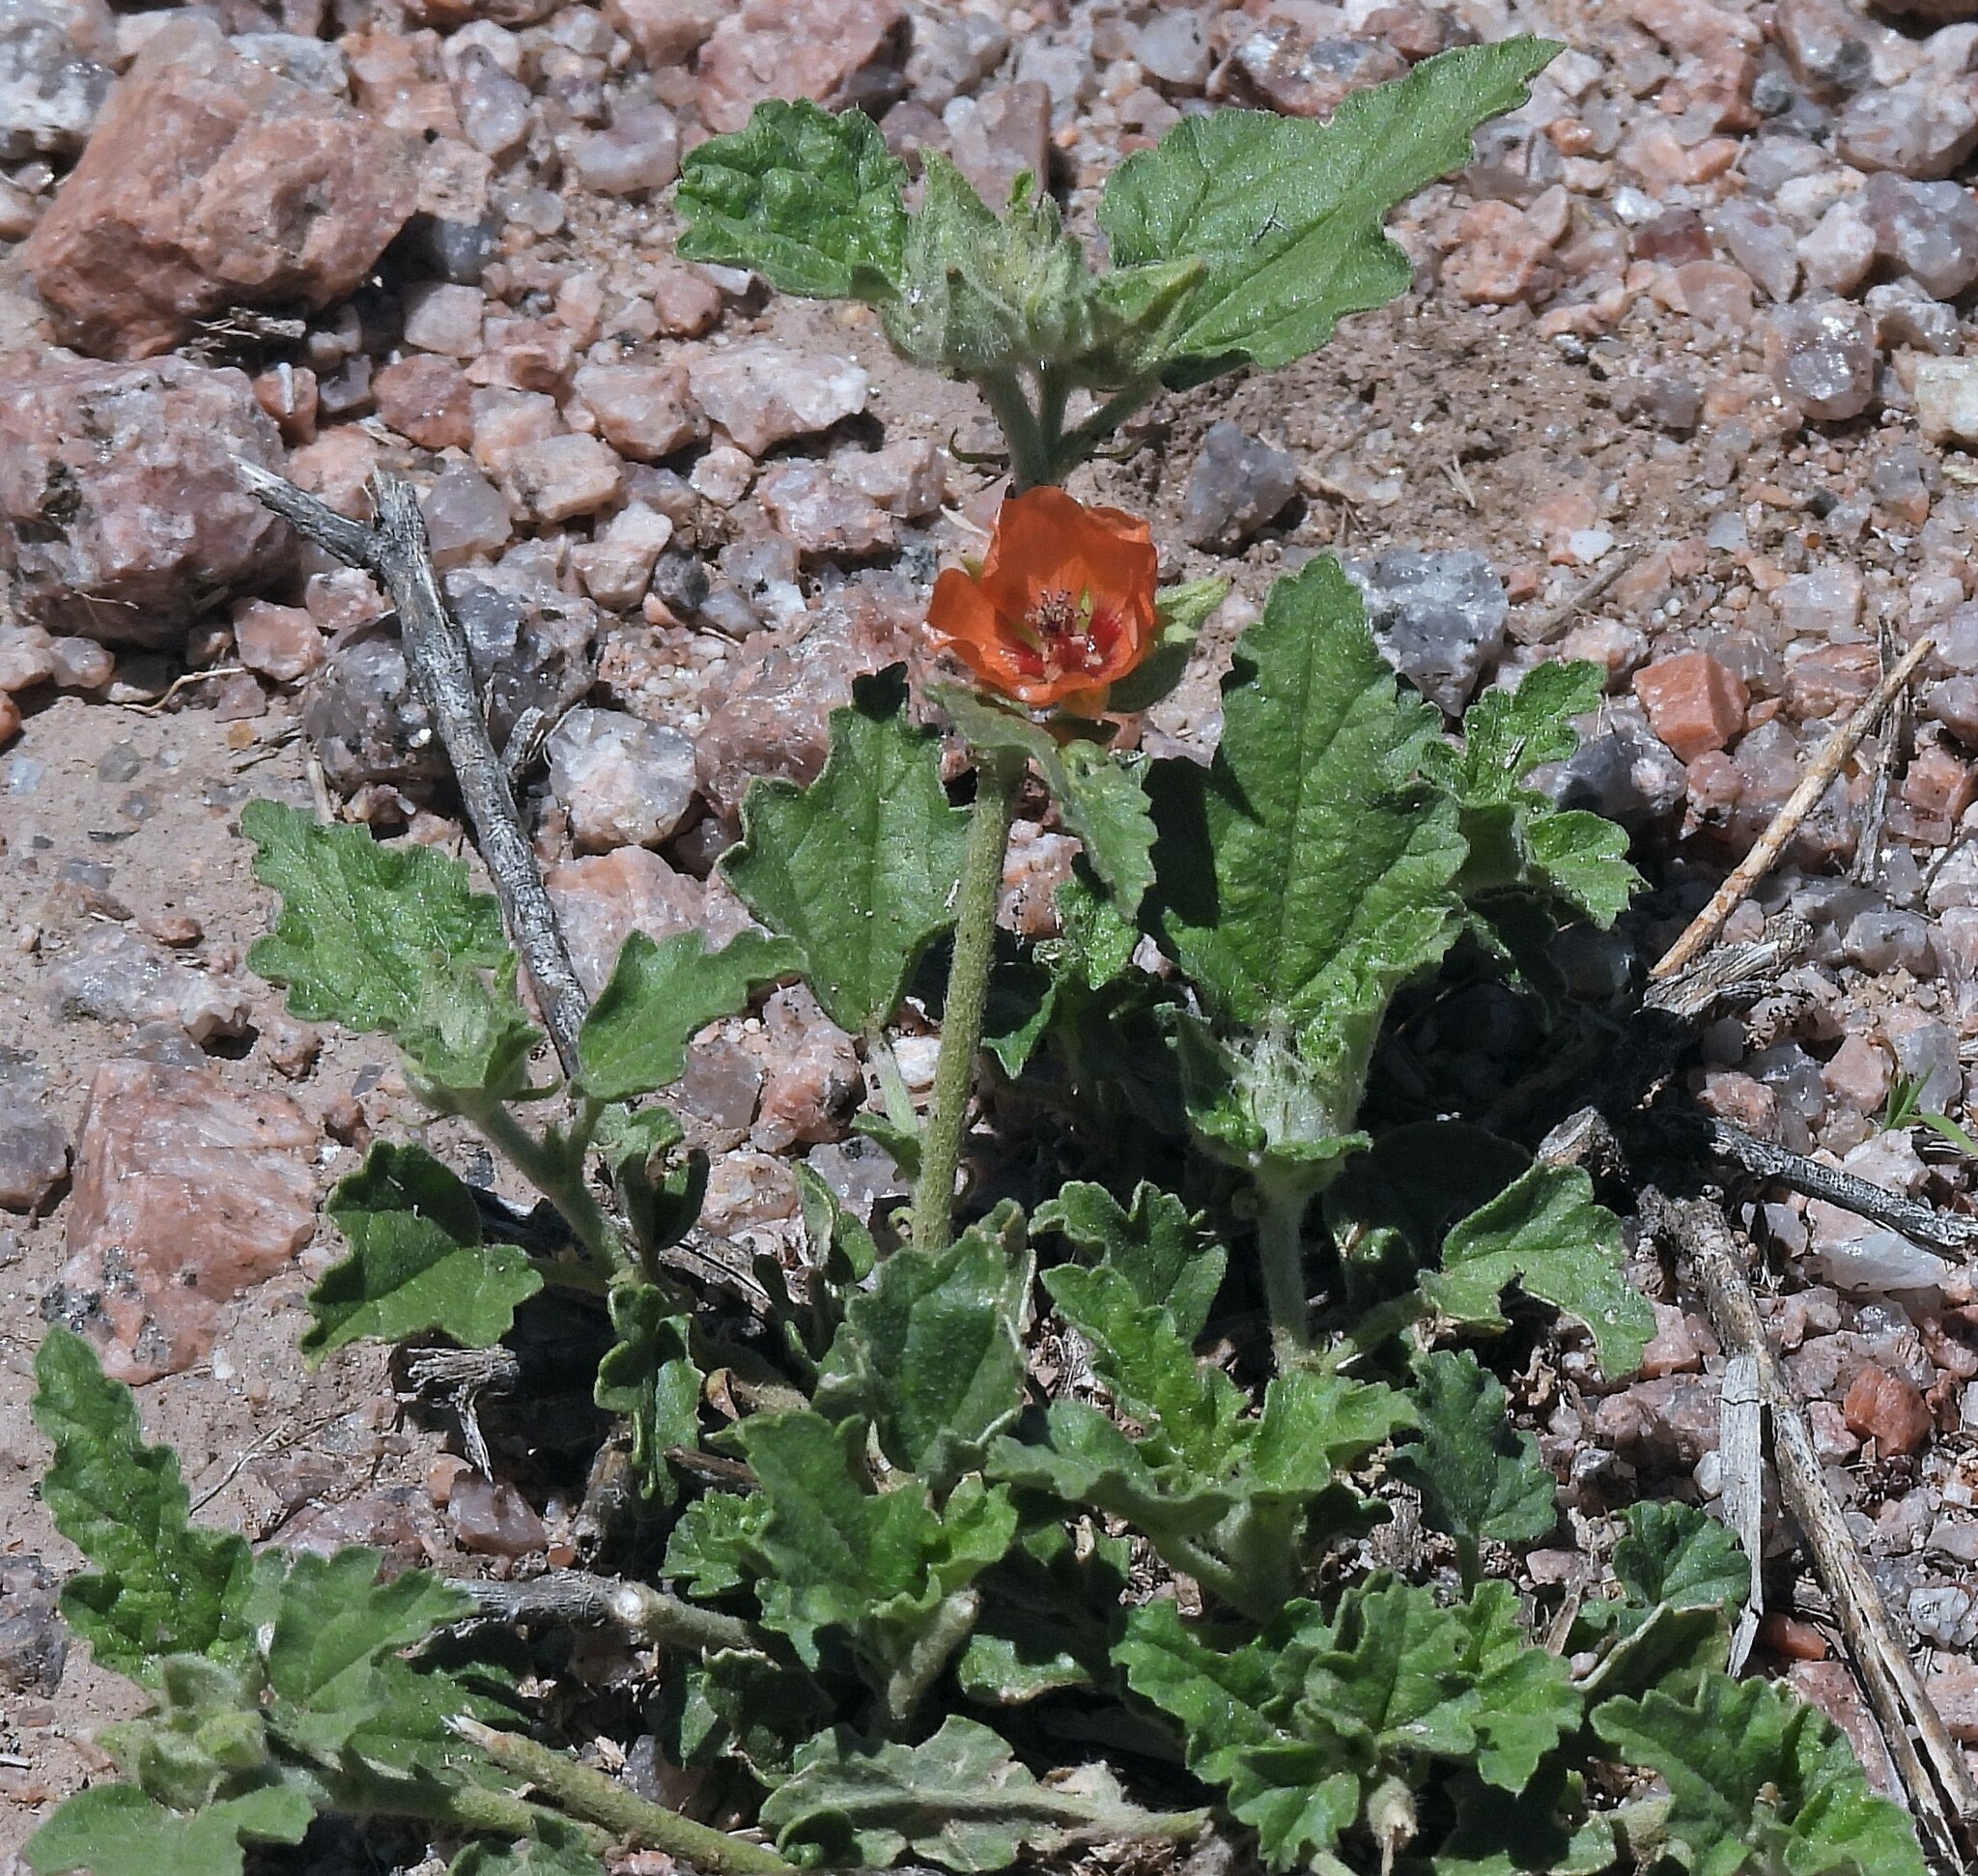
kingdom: Plantae
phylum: Tracheophyta
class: Magnoliopsida
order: Malvales
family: Malvaceae
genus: Sphaeralcea
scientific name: Sphaeralcea miniata
